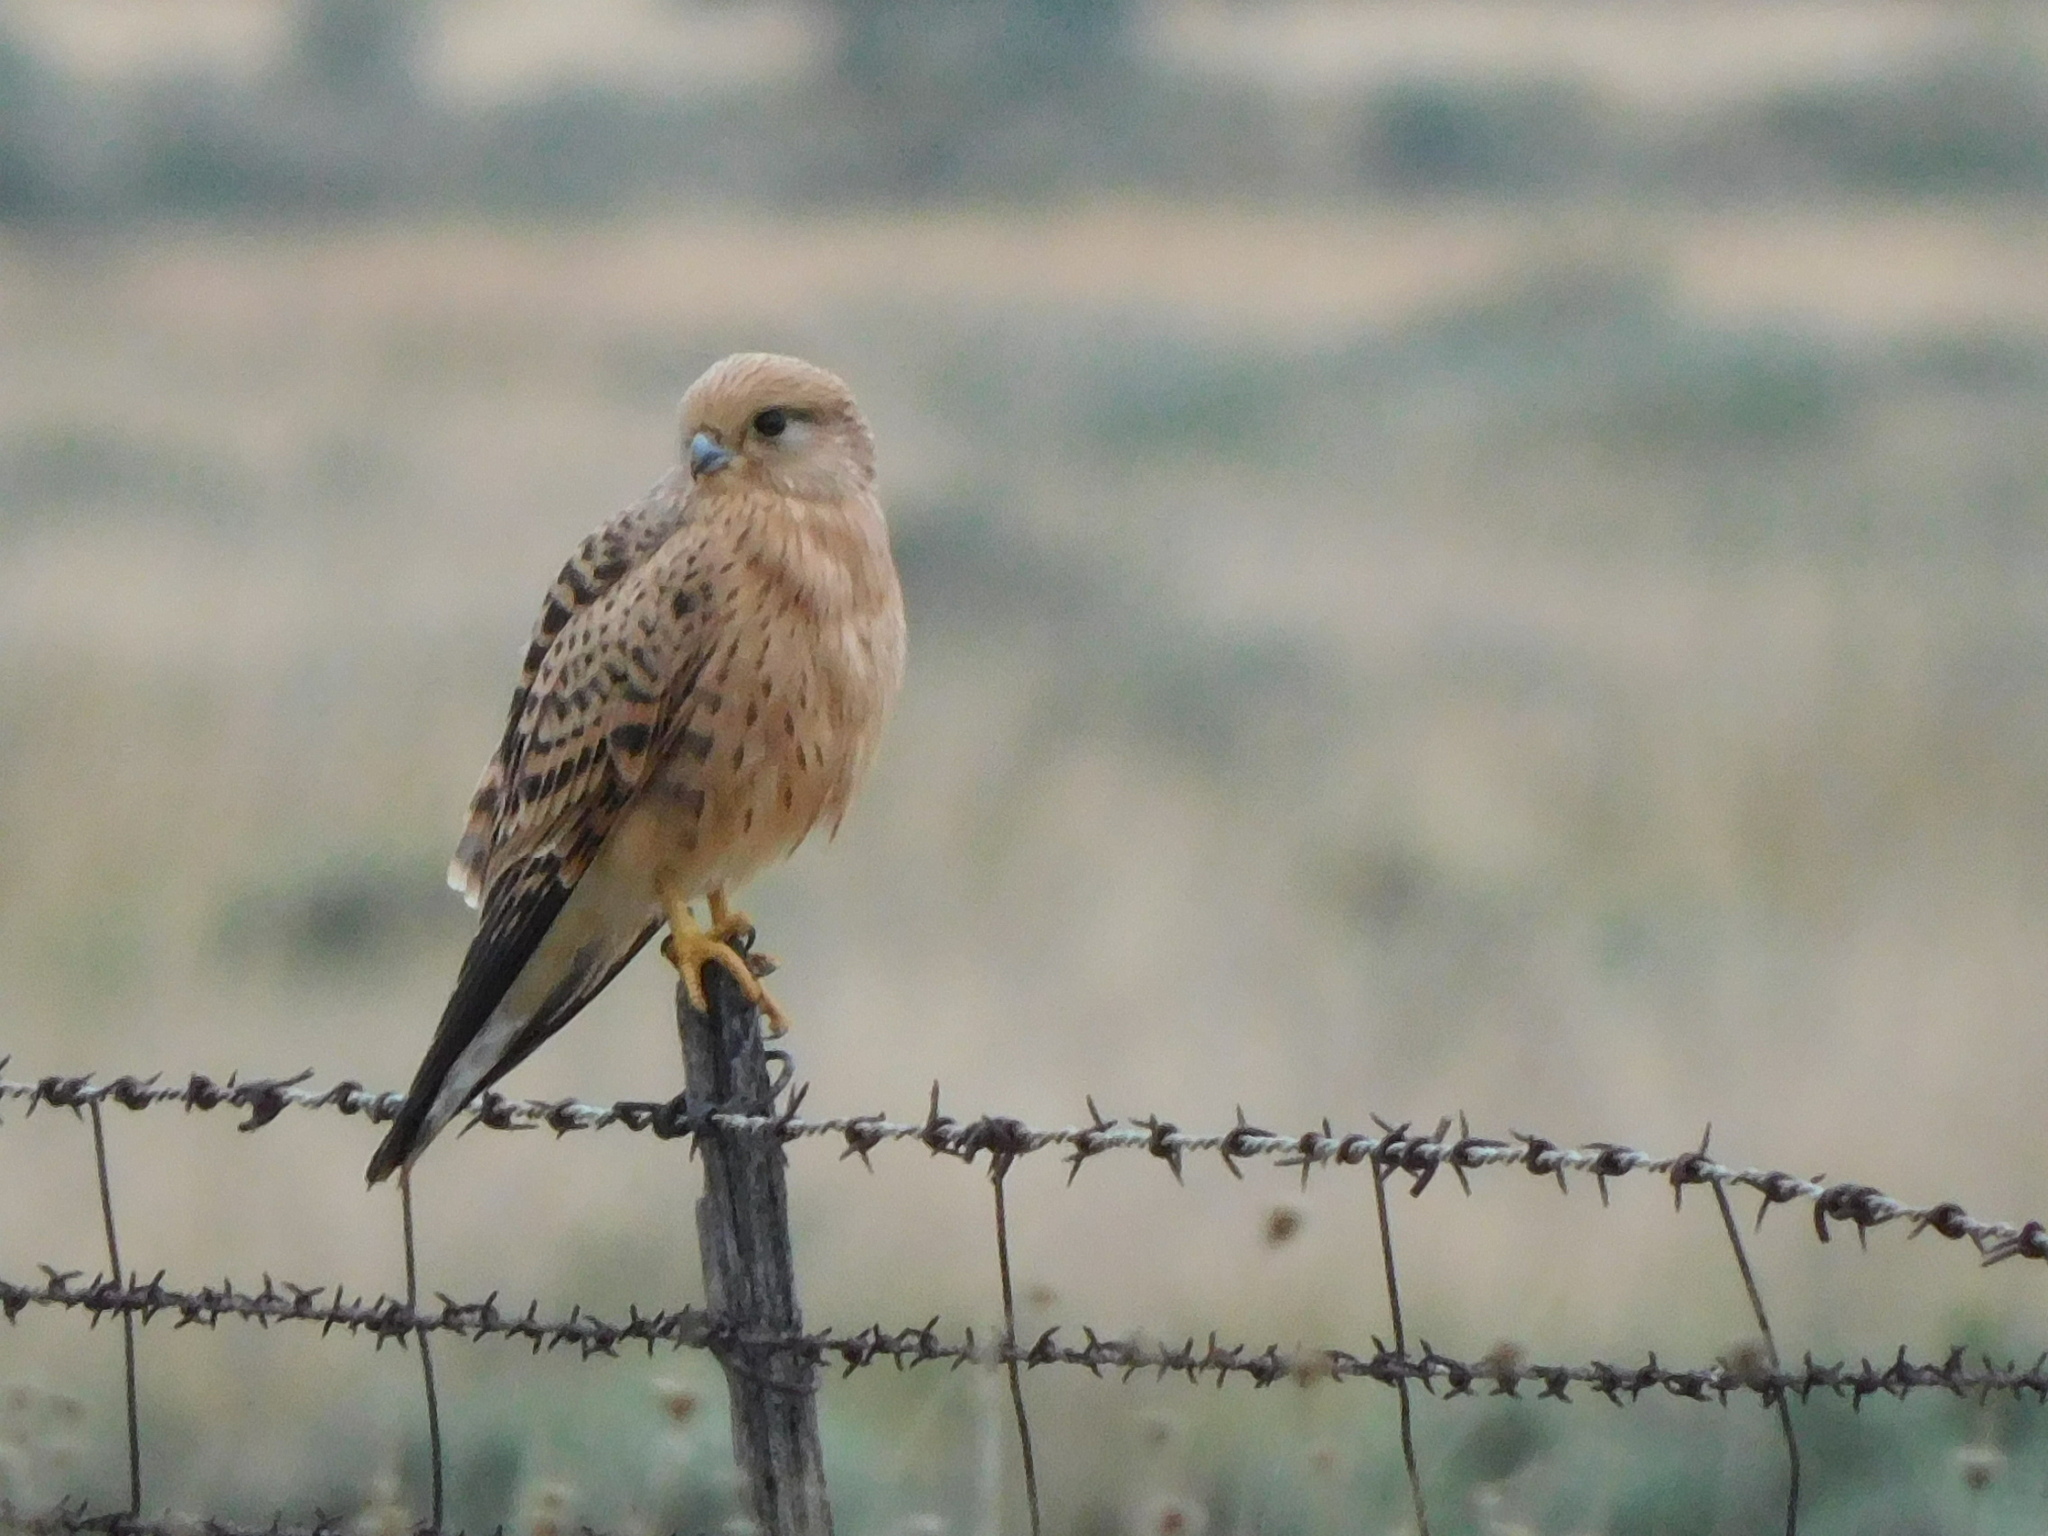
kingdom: Animalia
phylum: Chordata
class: Aves
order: Falconiformes
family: Falconidae
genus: Falco
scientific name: Falco rupicoloides
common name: Greater kestrel
